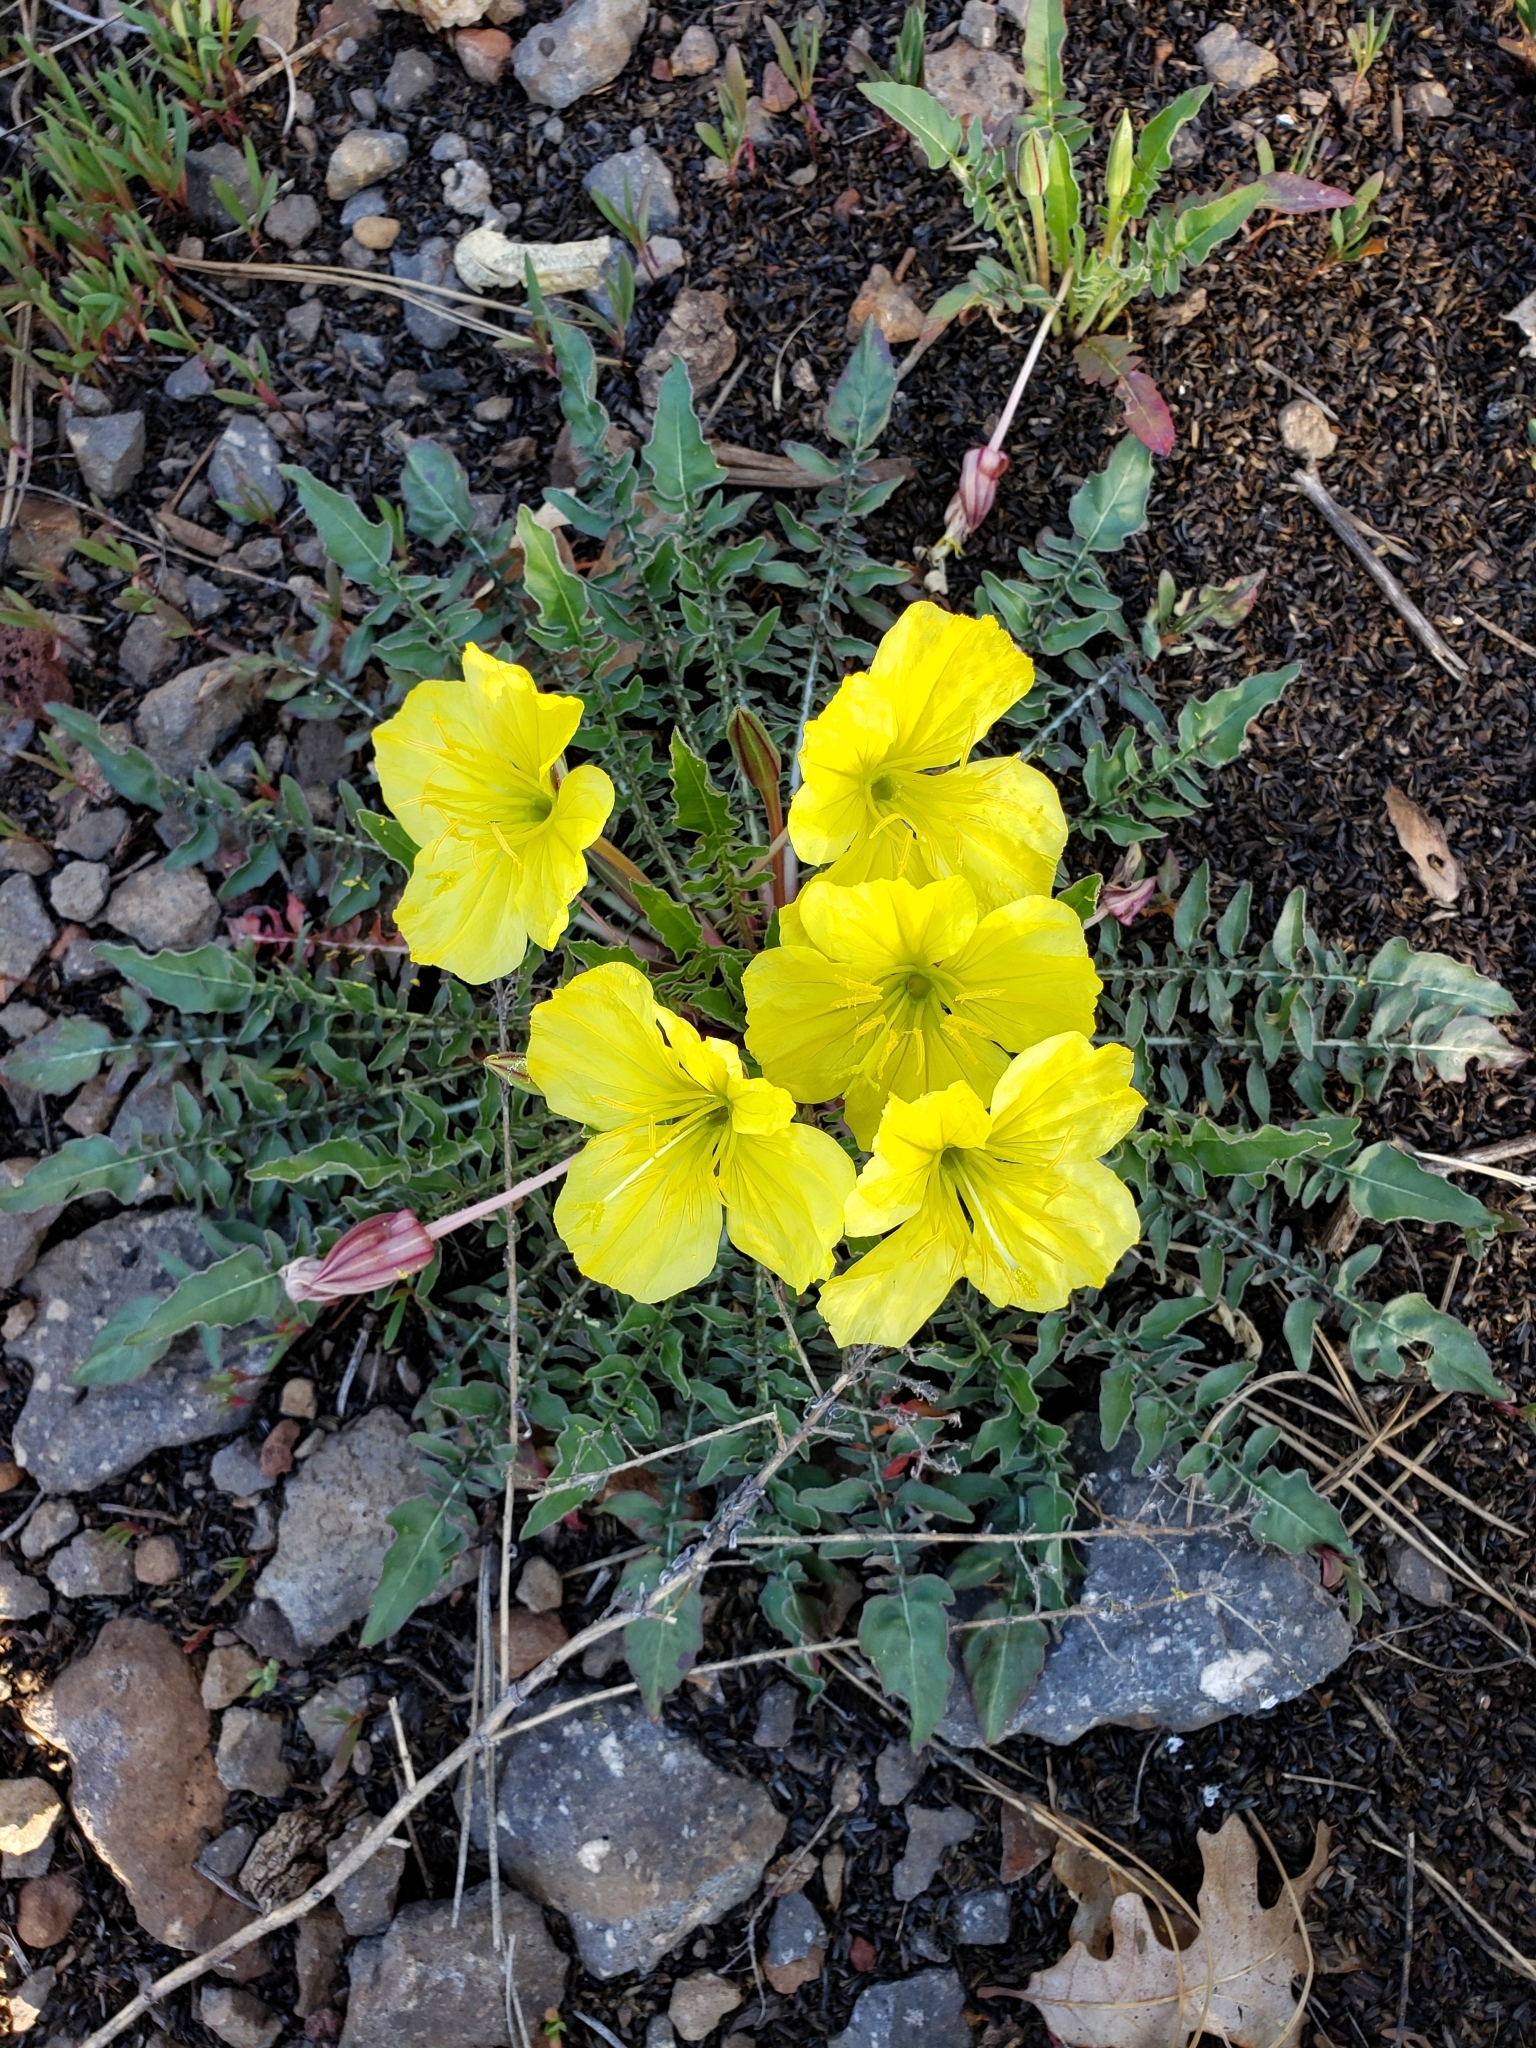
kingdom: Plantae
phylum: Tracheophyta
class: Magnoliopsida
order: Myrtales
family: Onagraceae
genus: Oenothera
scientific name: Oenothera flava
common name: Long-tubed evening-primrose
